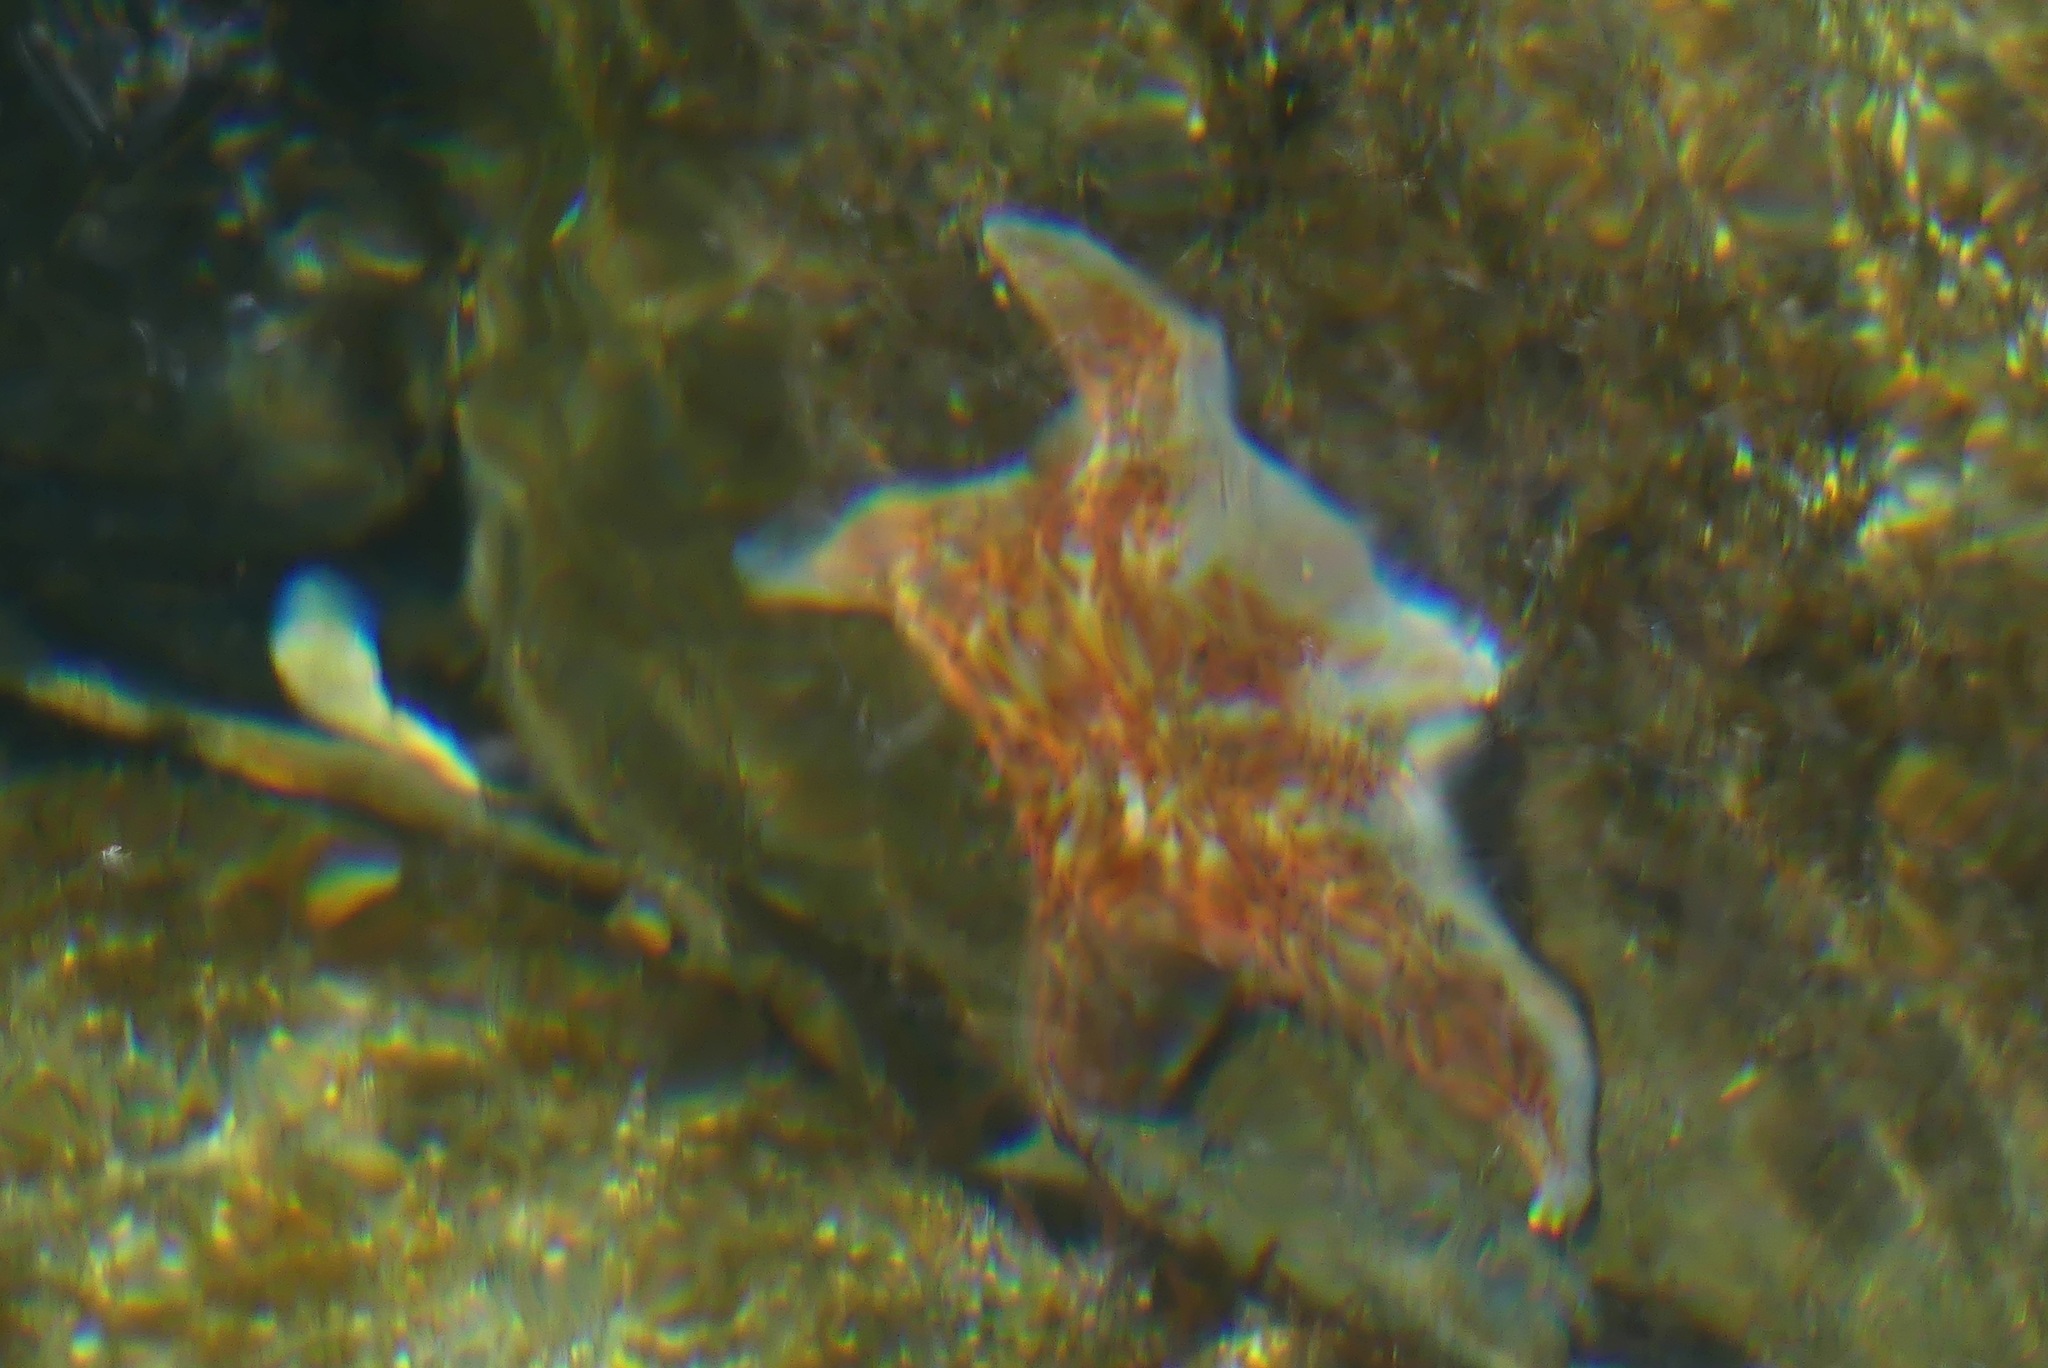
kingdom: Animalia
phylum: Echinodermata
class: Asteroidea
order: Valvatida
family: Asteropseidae
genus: Dermasterias
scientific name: Dermasterias imbricata
